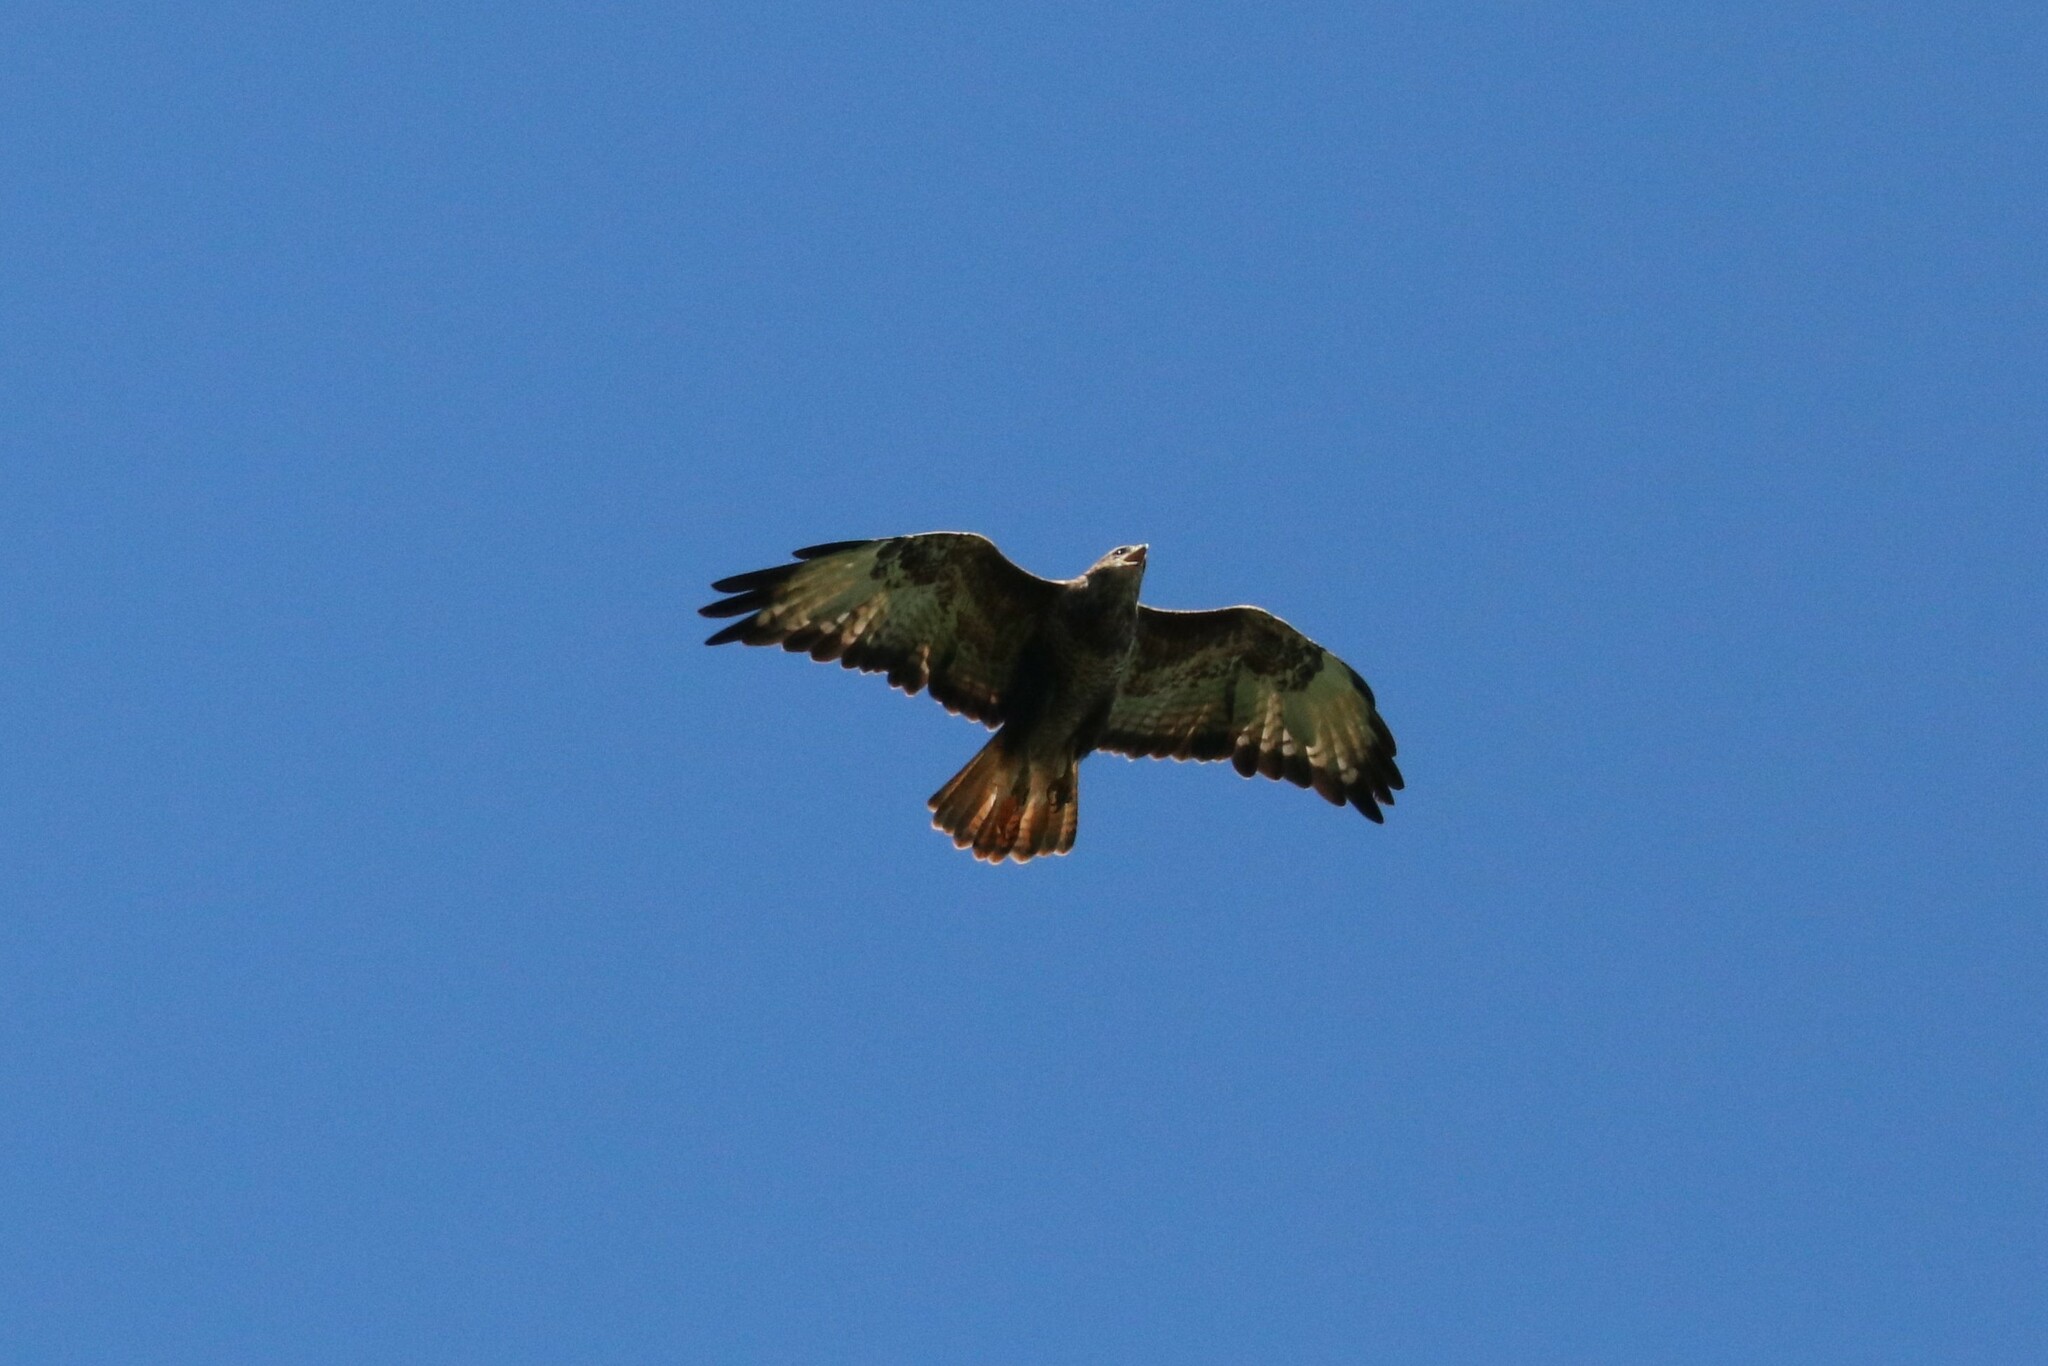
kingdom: Animalia
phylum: Chordata
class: Aves
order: Accipitriformes
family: Accipitridae
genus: Buteo
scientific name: Buteo buteo
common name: Common buzzard
